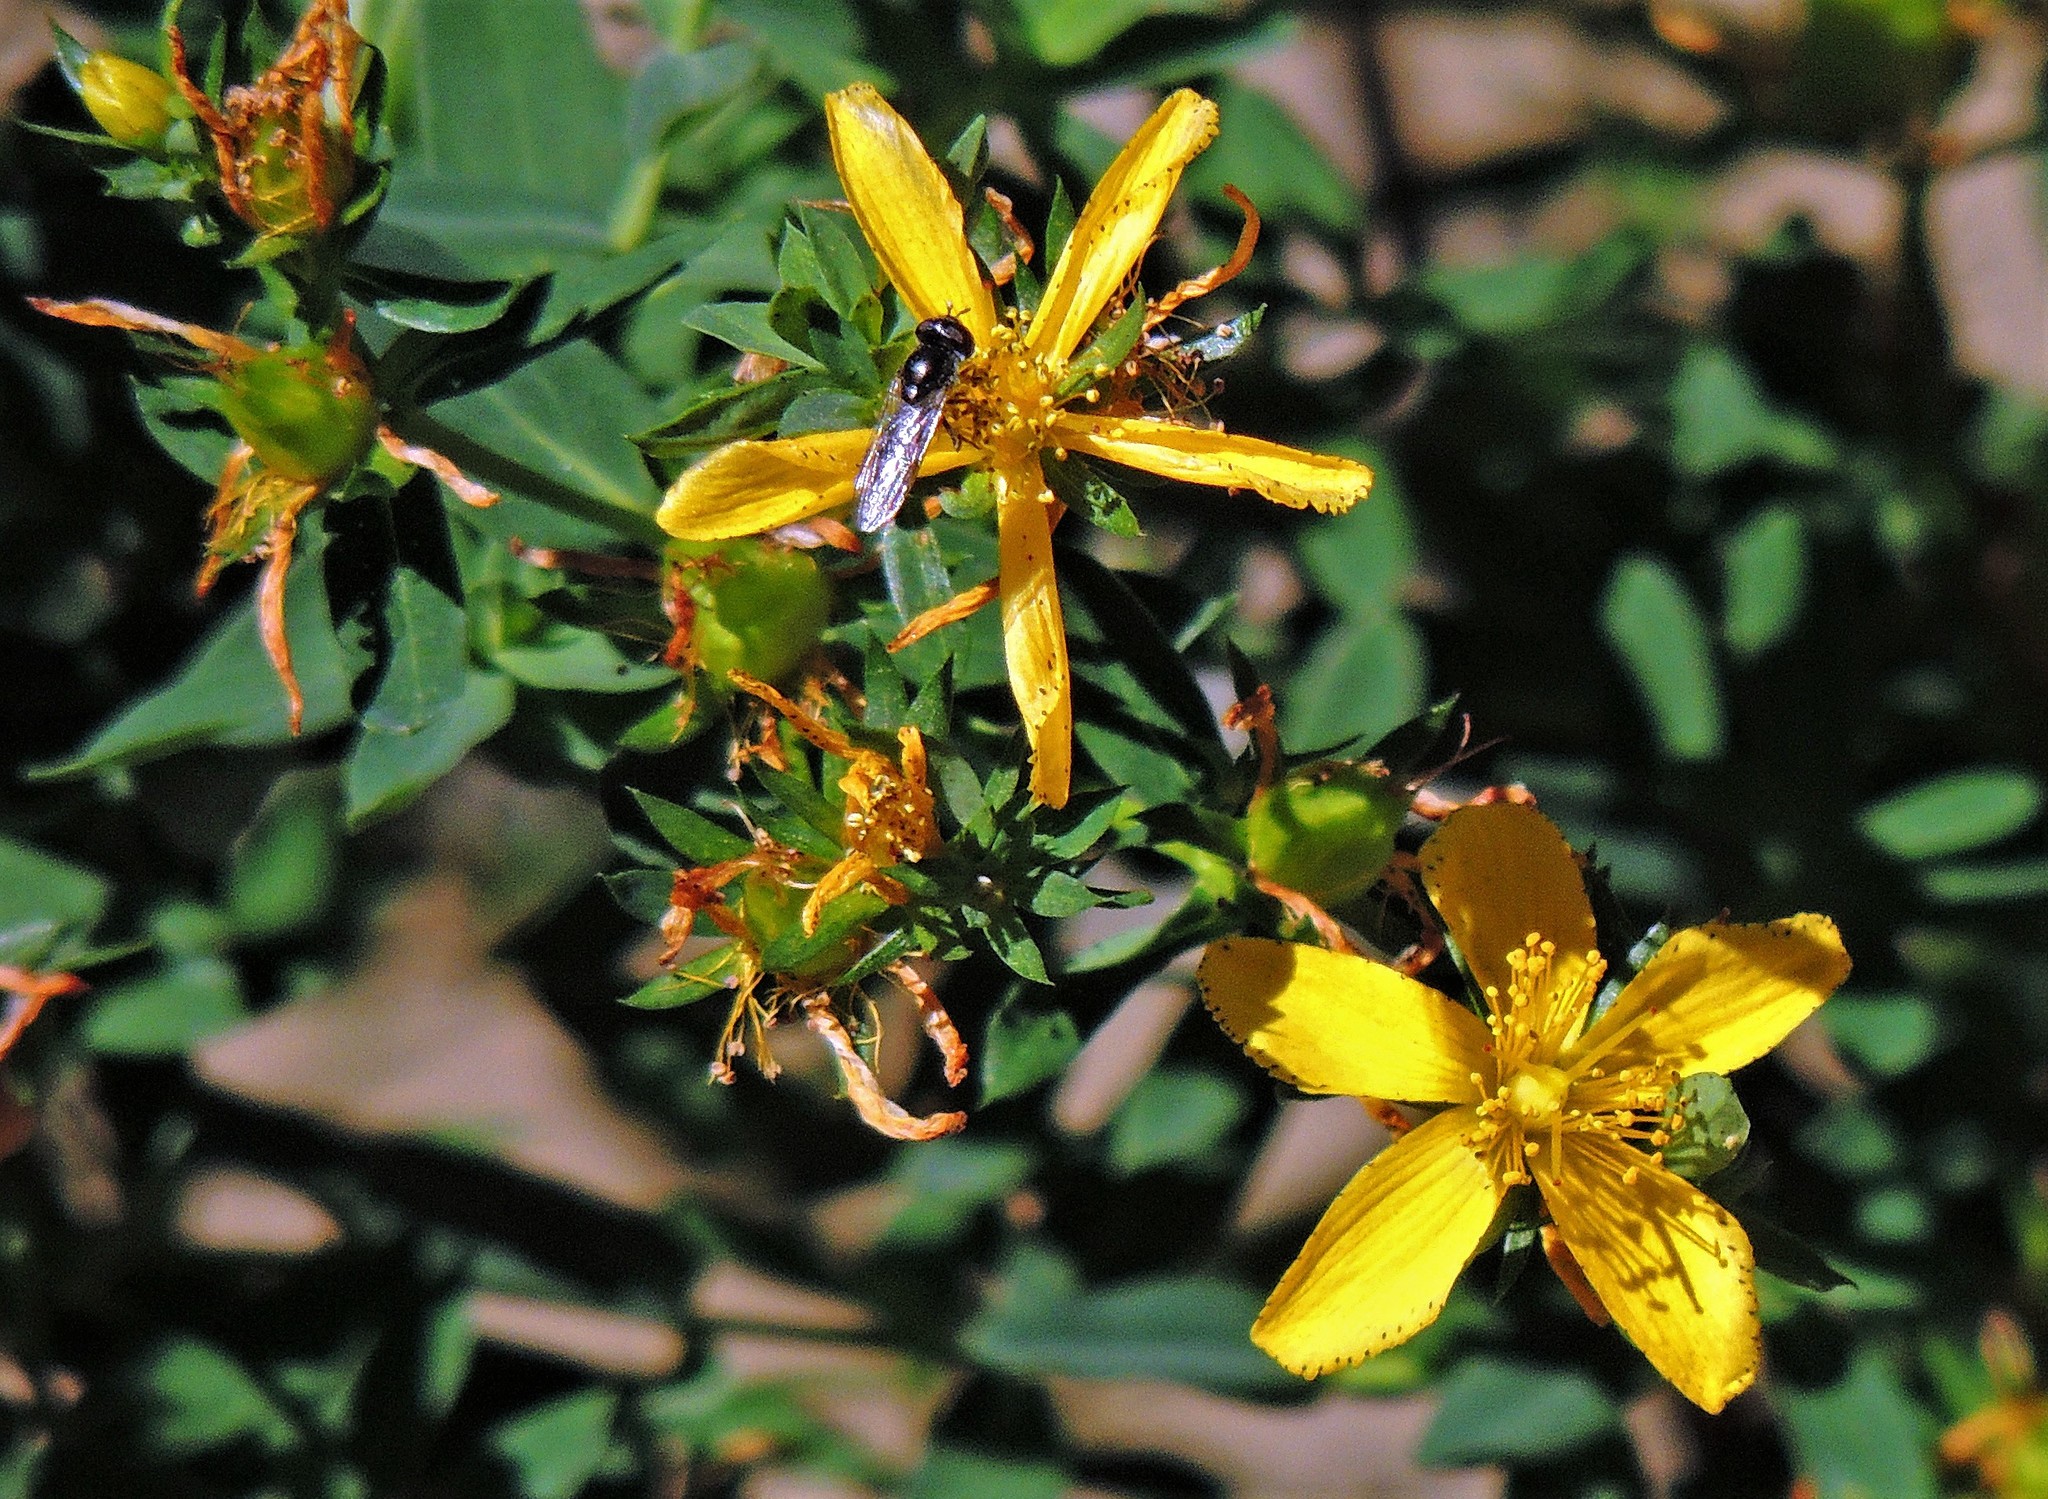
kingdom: Plantae
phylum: Tracheophyta
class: Magnoliopsida
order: Malpighiales
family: Hypericaceae
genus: Hypericum
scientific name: Hypericum perforatum
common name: Common st. johnswort
